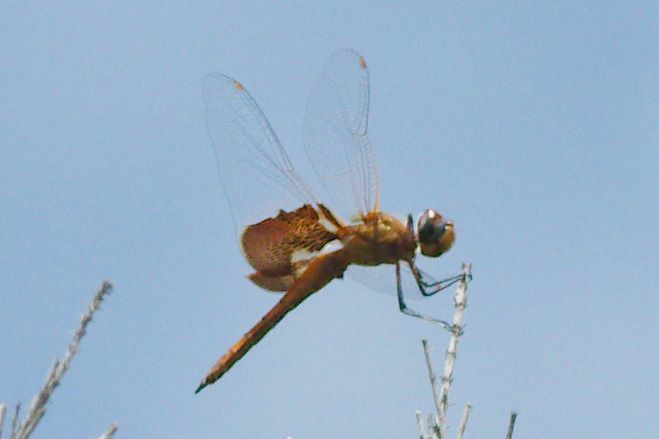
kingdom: Animalia
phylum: Arthropoda
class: Insecta
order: Odonata
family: Libellulidae
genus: Tramea
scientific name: Tramea onusta
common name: Red saddlebags
